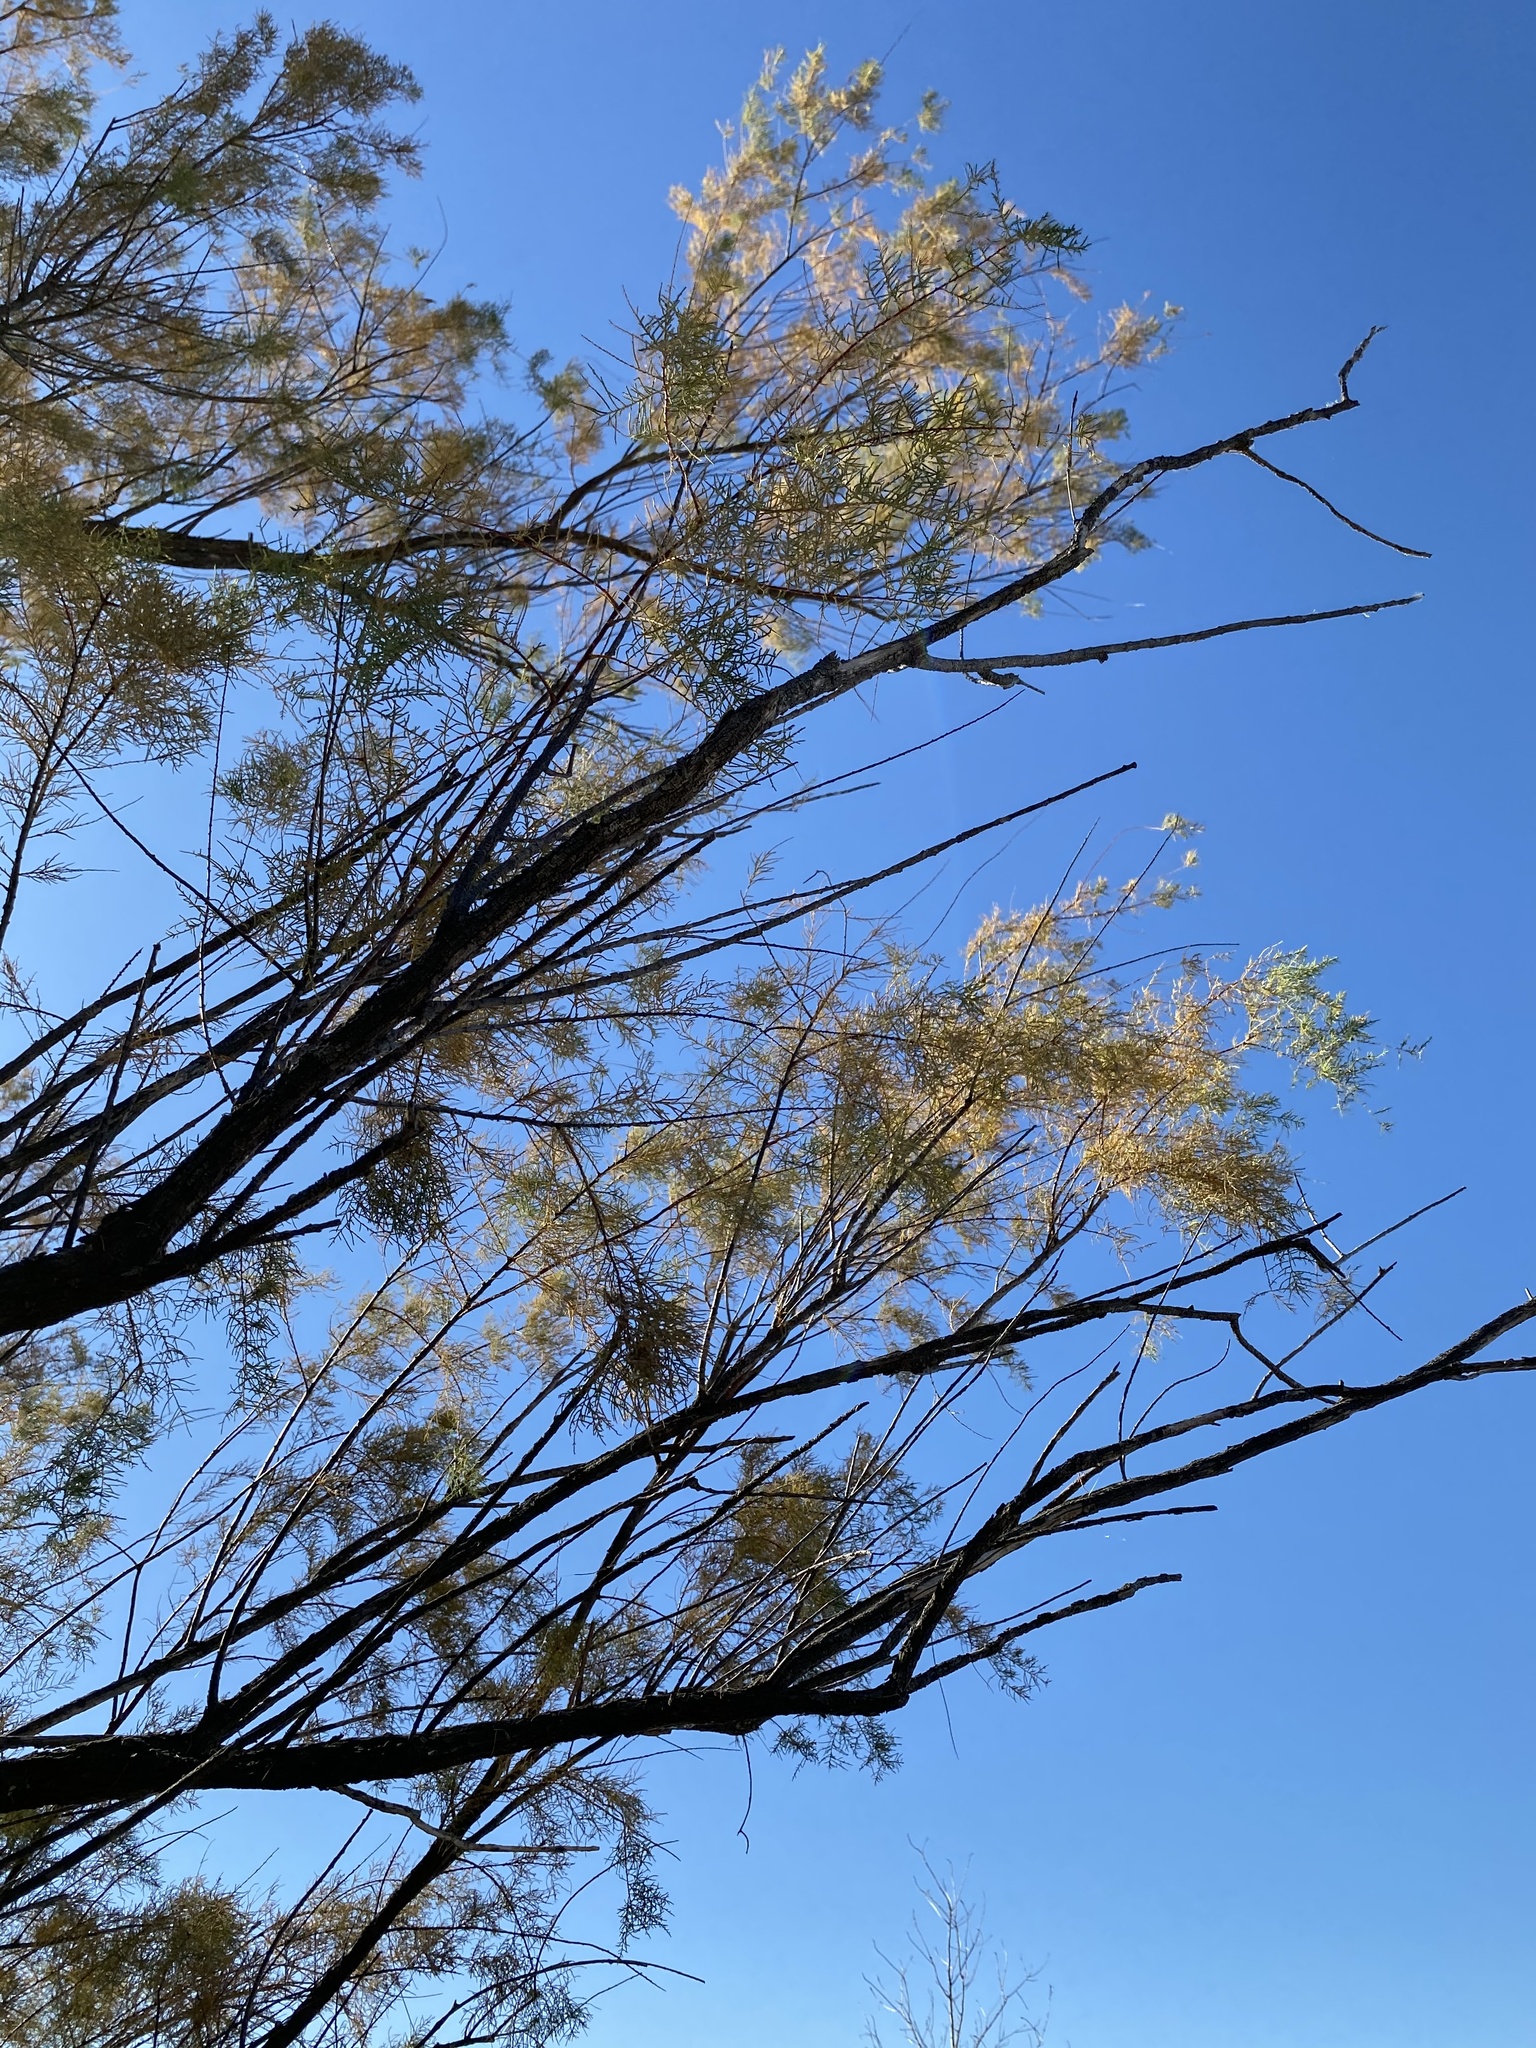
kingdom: Plantae
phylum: Tracheophyta
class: Magnoliopsida
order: Caryophyllales
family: Tamaricaceae
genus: Tamarix
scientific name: Tamarix
